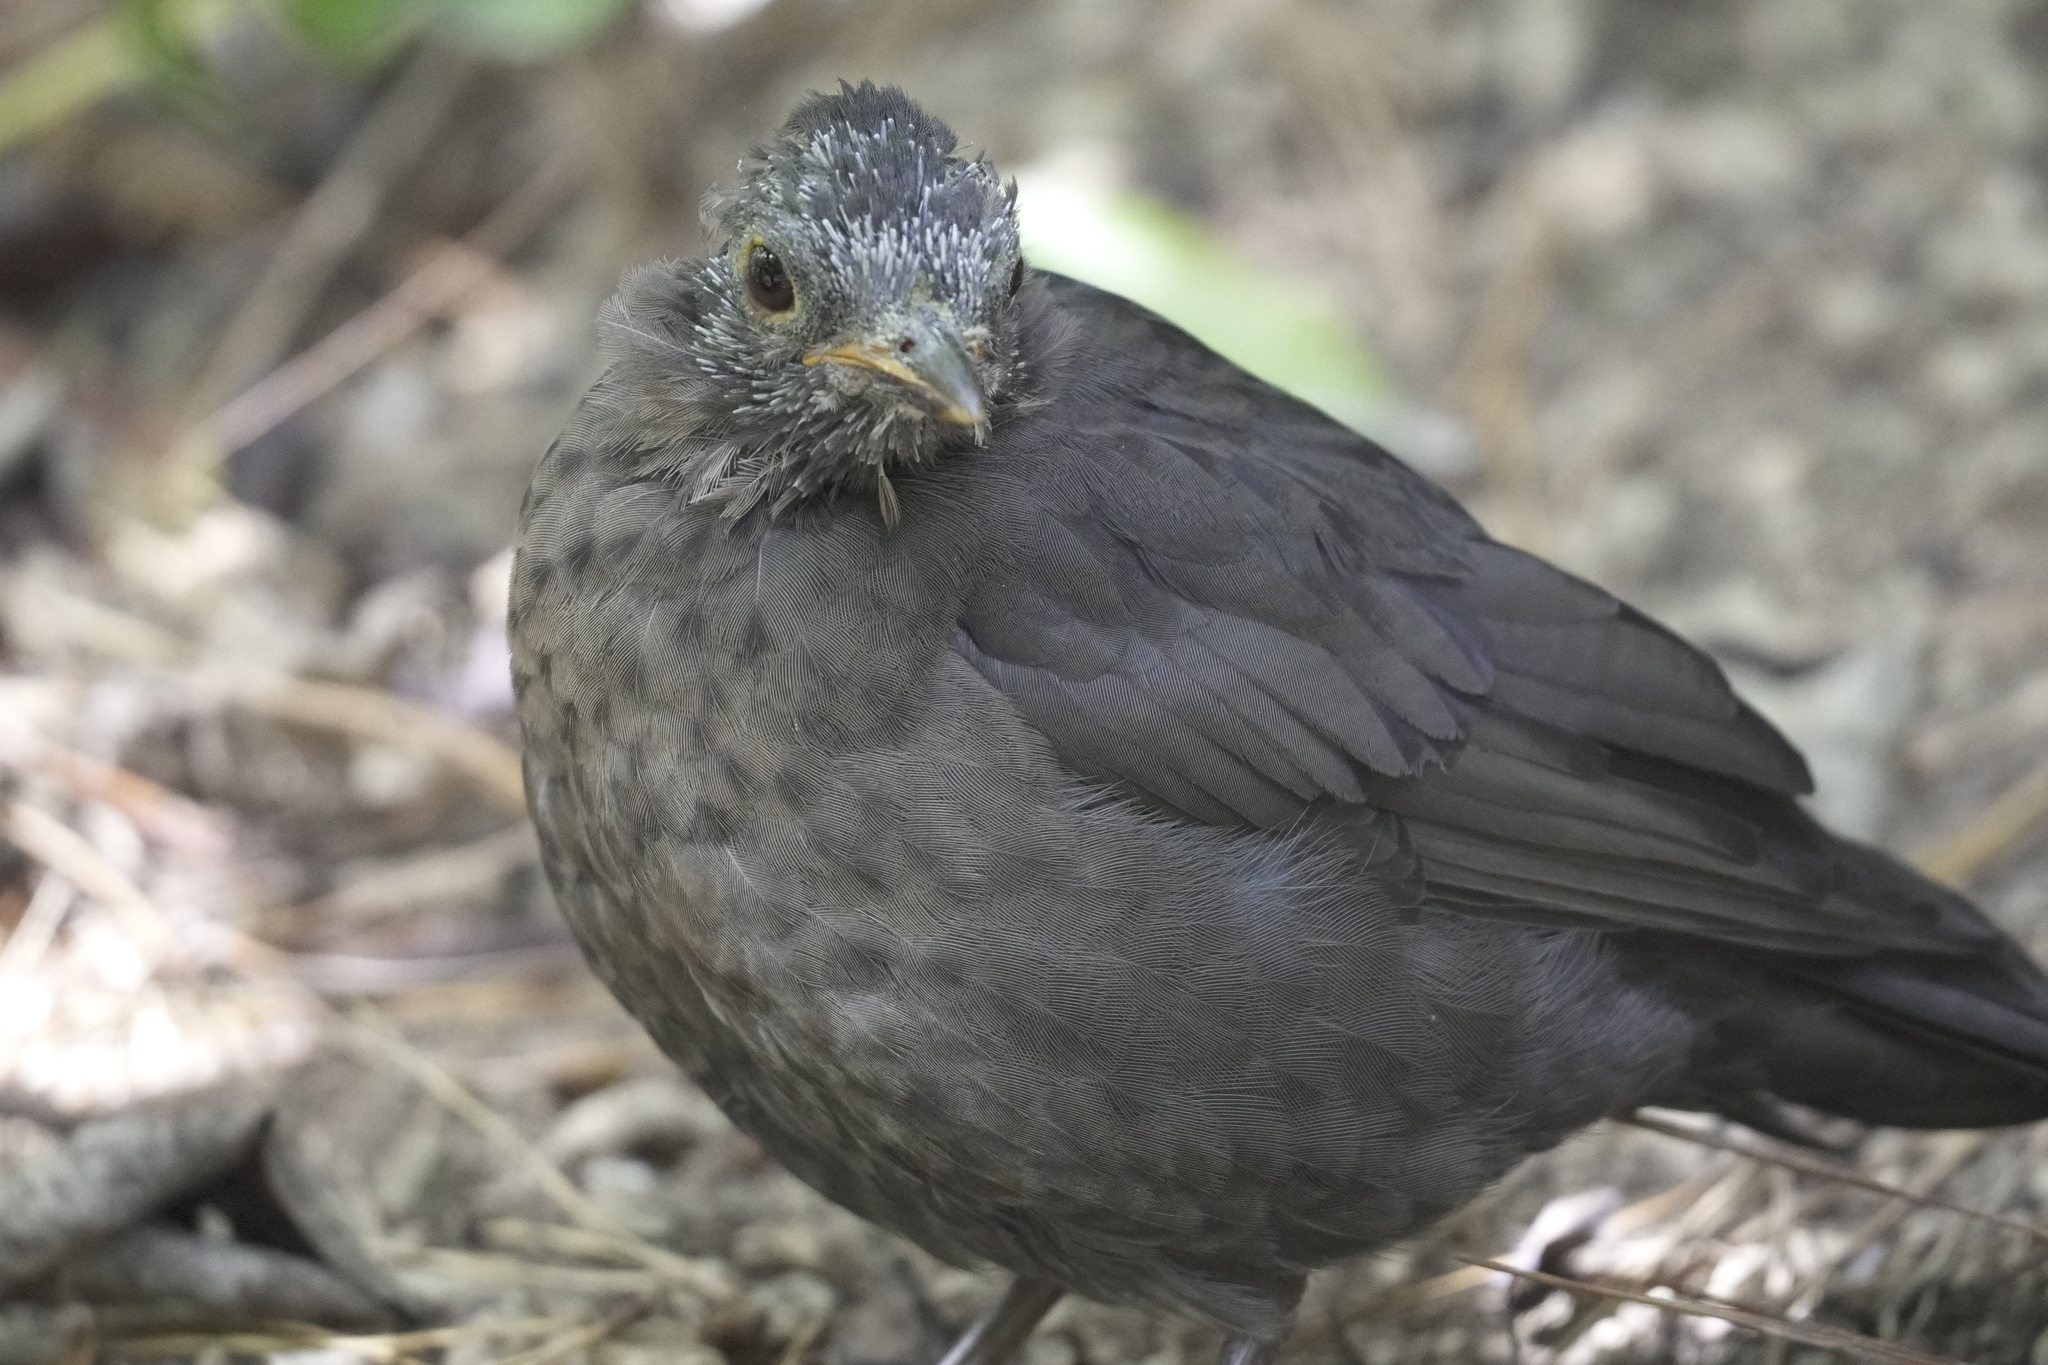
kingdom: Animalia
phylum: Chordata
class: Aves
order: Passeriformes
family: Turdidae
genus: Turdus
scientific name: Turdus merula
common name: Common blackbird
